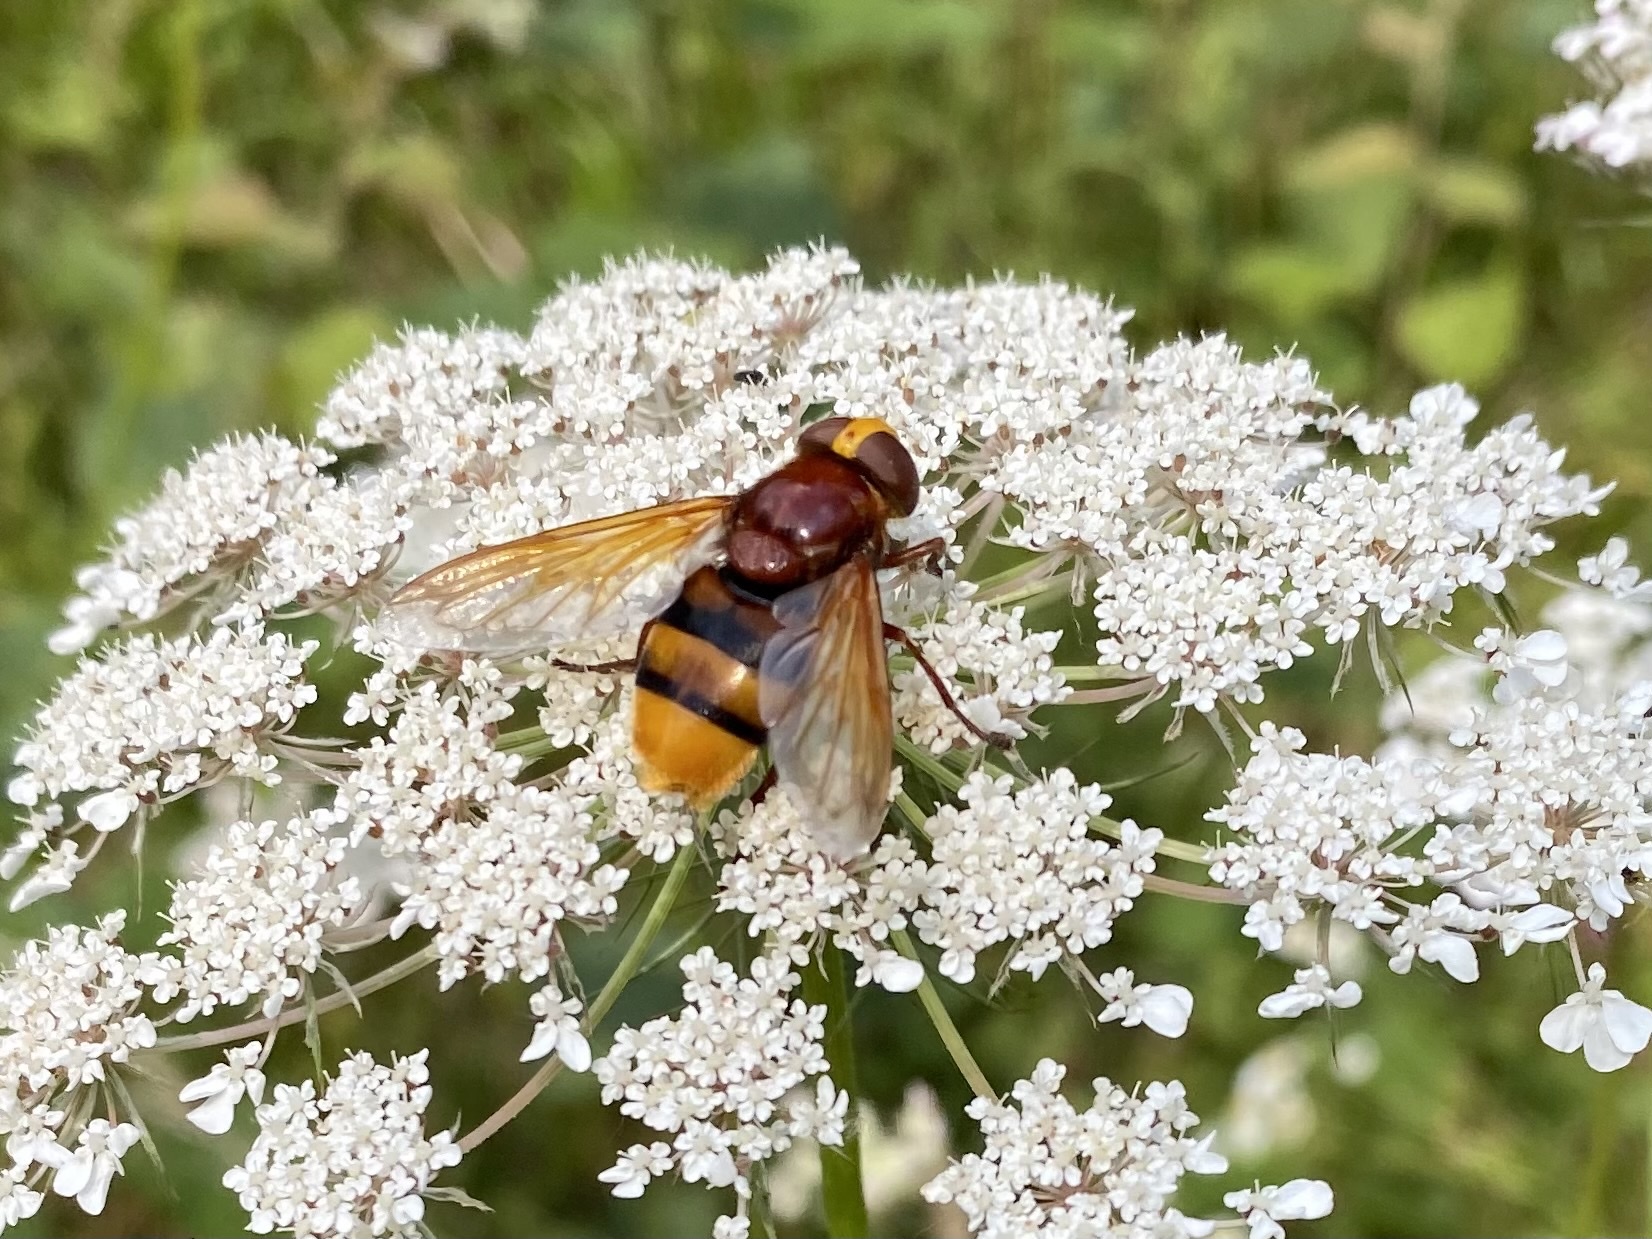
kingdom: Animalia
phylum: Arthropoda
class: Insecta
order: Diptera
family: Syrphidae
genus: Volucella
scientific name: Volucella zonaria
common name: Hornet hoverfly
